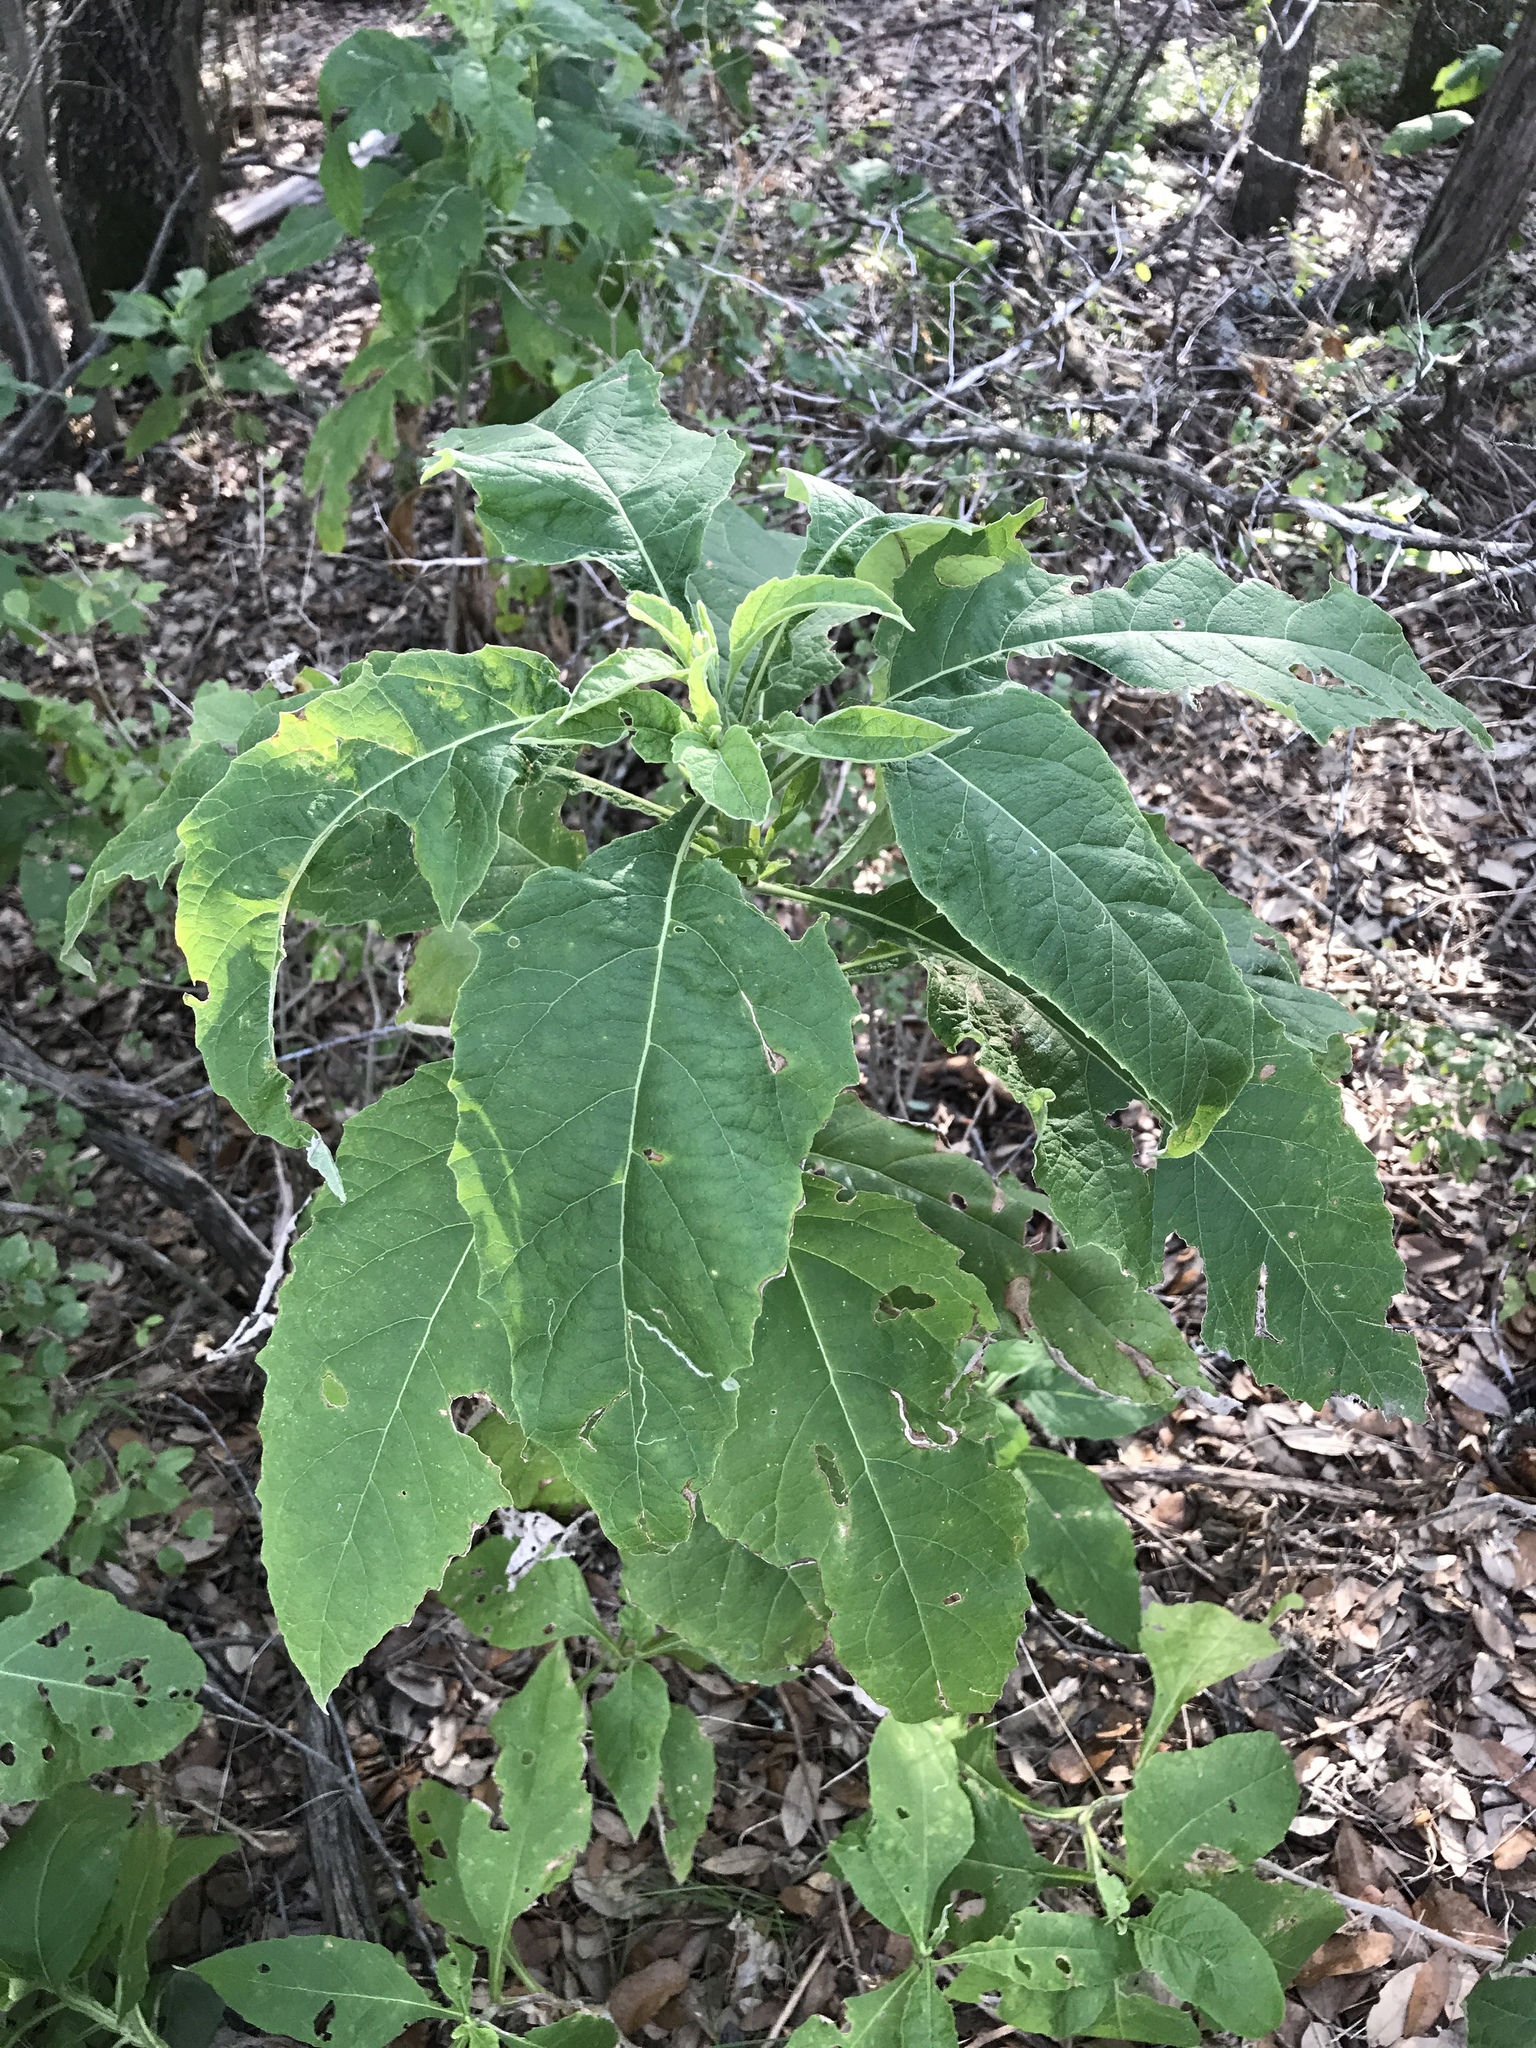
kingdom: Plantae
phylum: Tracheophyta
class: Magnoliopsida
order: Asterales
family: Asteraceae
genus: Verbesina
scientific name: Verbesina virginica
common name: Frostweed
